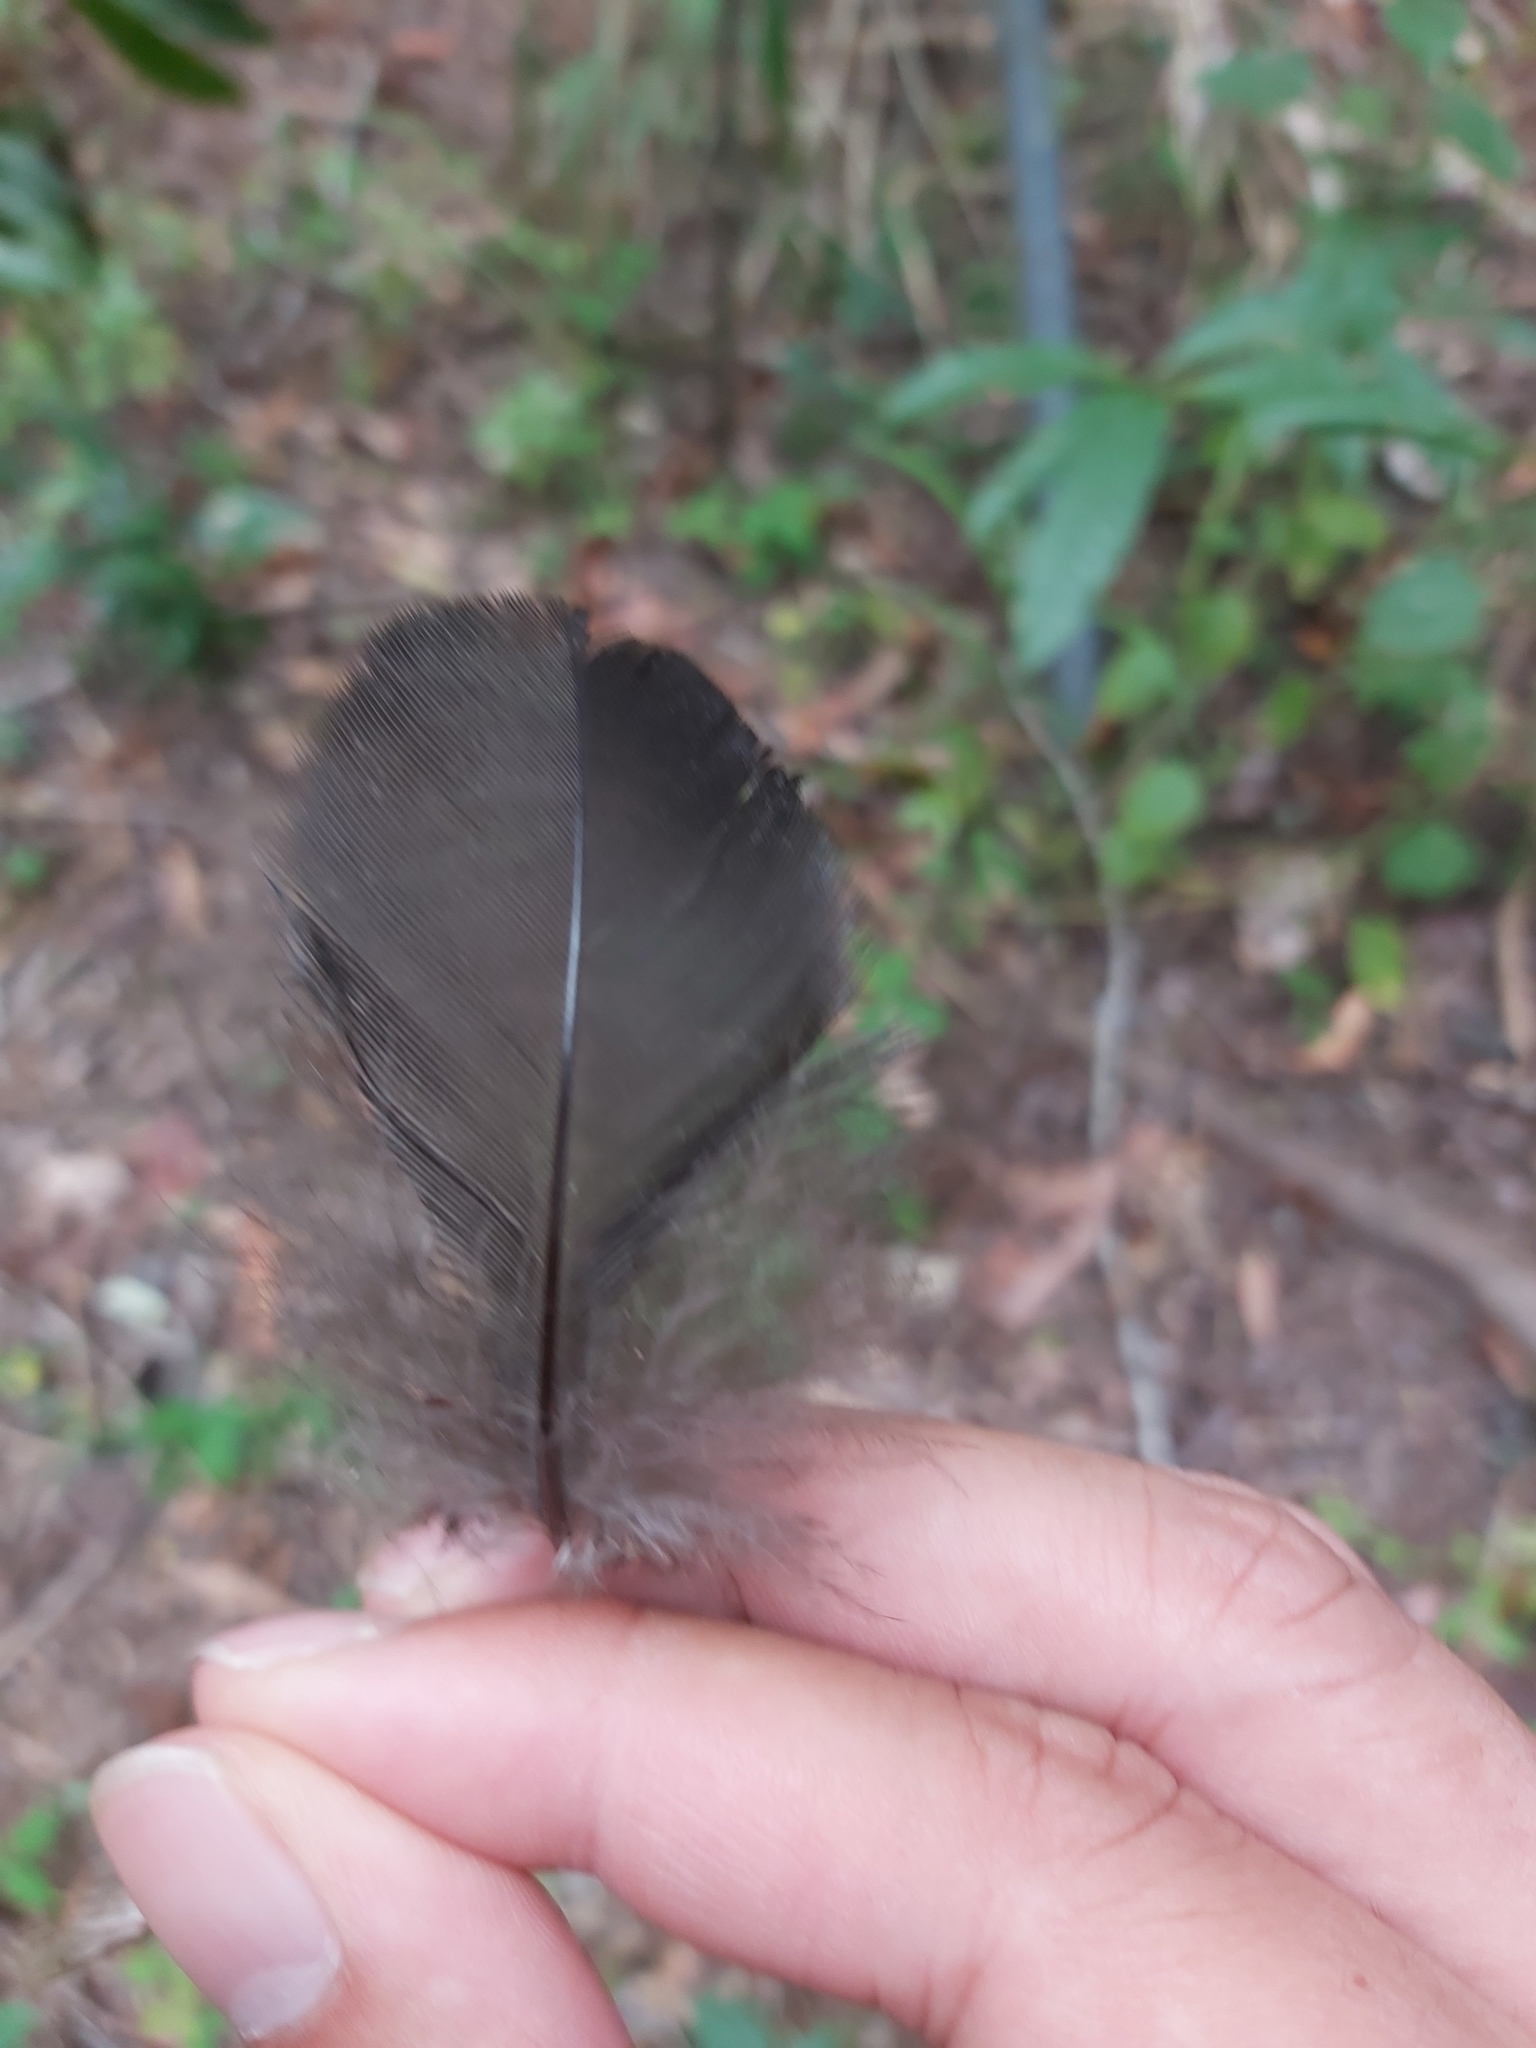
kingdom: Animalia
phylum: Chordata
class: Aves
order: Galliformes
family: Megapodiidae
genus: Alectura
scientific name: Alectura lathami
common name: Australian brushturkey
